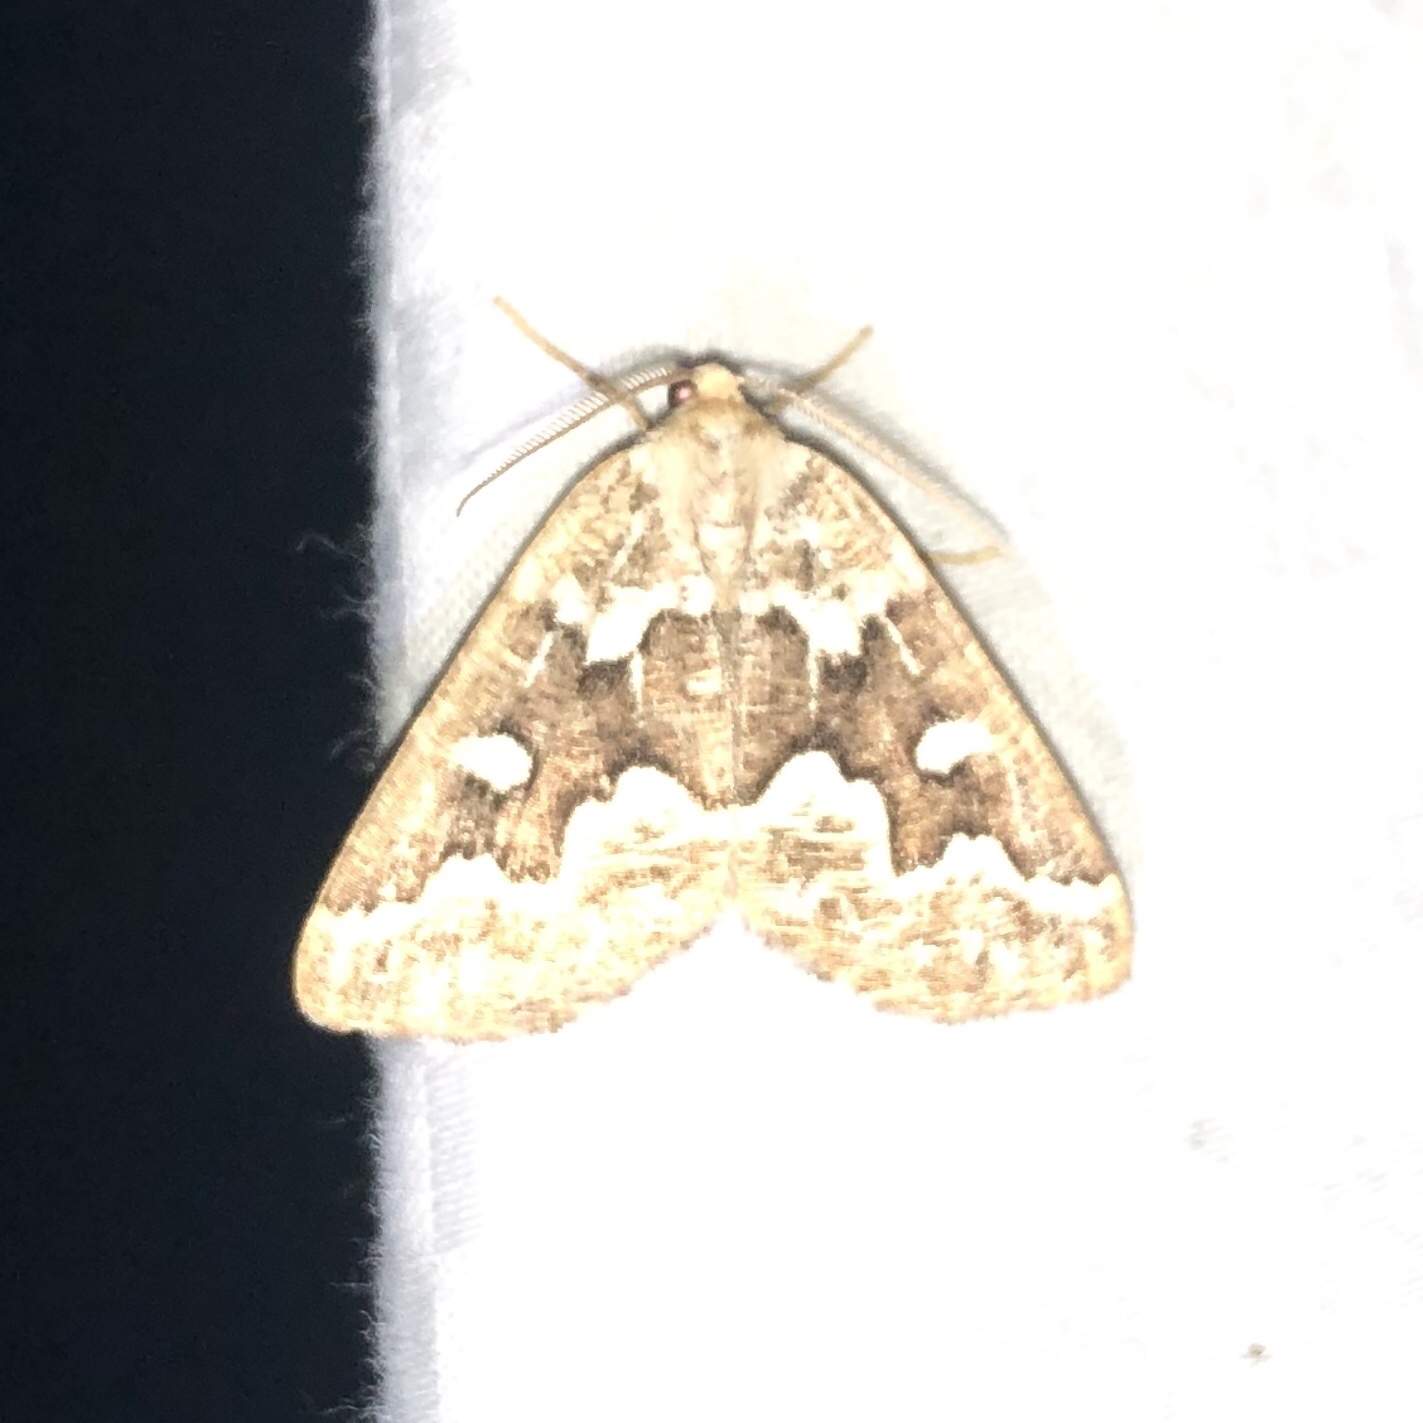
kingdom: Animalia
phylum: Arthropoda
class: Insecta
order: Lepidoptera
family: Geometridae
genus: Caripeta
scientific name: Caripeta divisata
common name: Gray spruce looper
